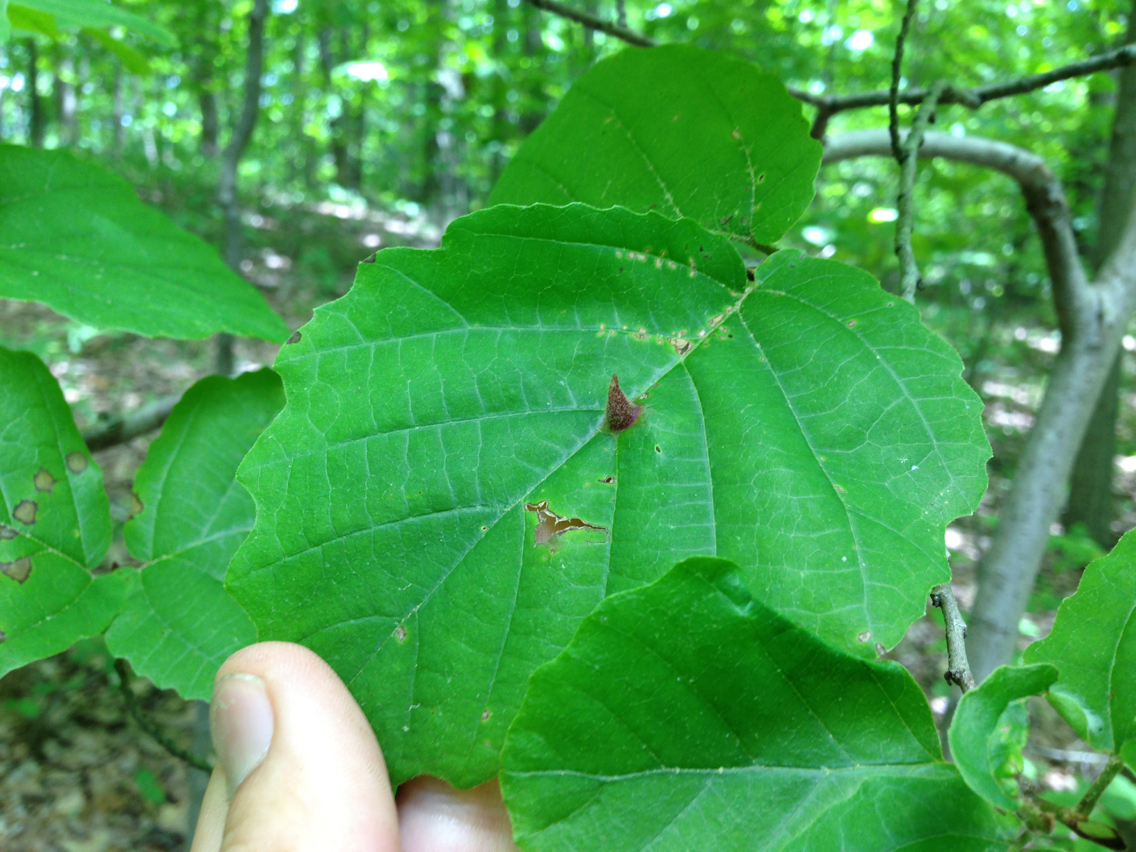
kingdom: Animalia
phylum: Arthropoda
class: Insecta
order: Hemiptera
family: Aphididae
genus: Hormaphis
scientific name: Hormaphis hamamelidis
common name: Witch-hazel cone gall aphid
